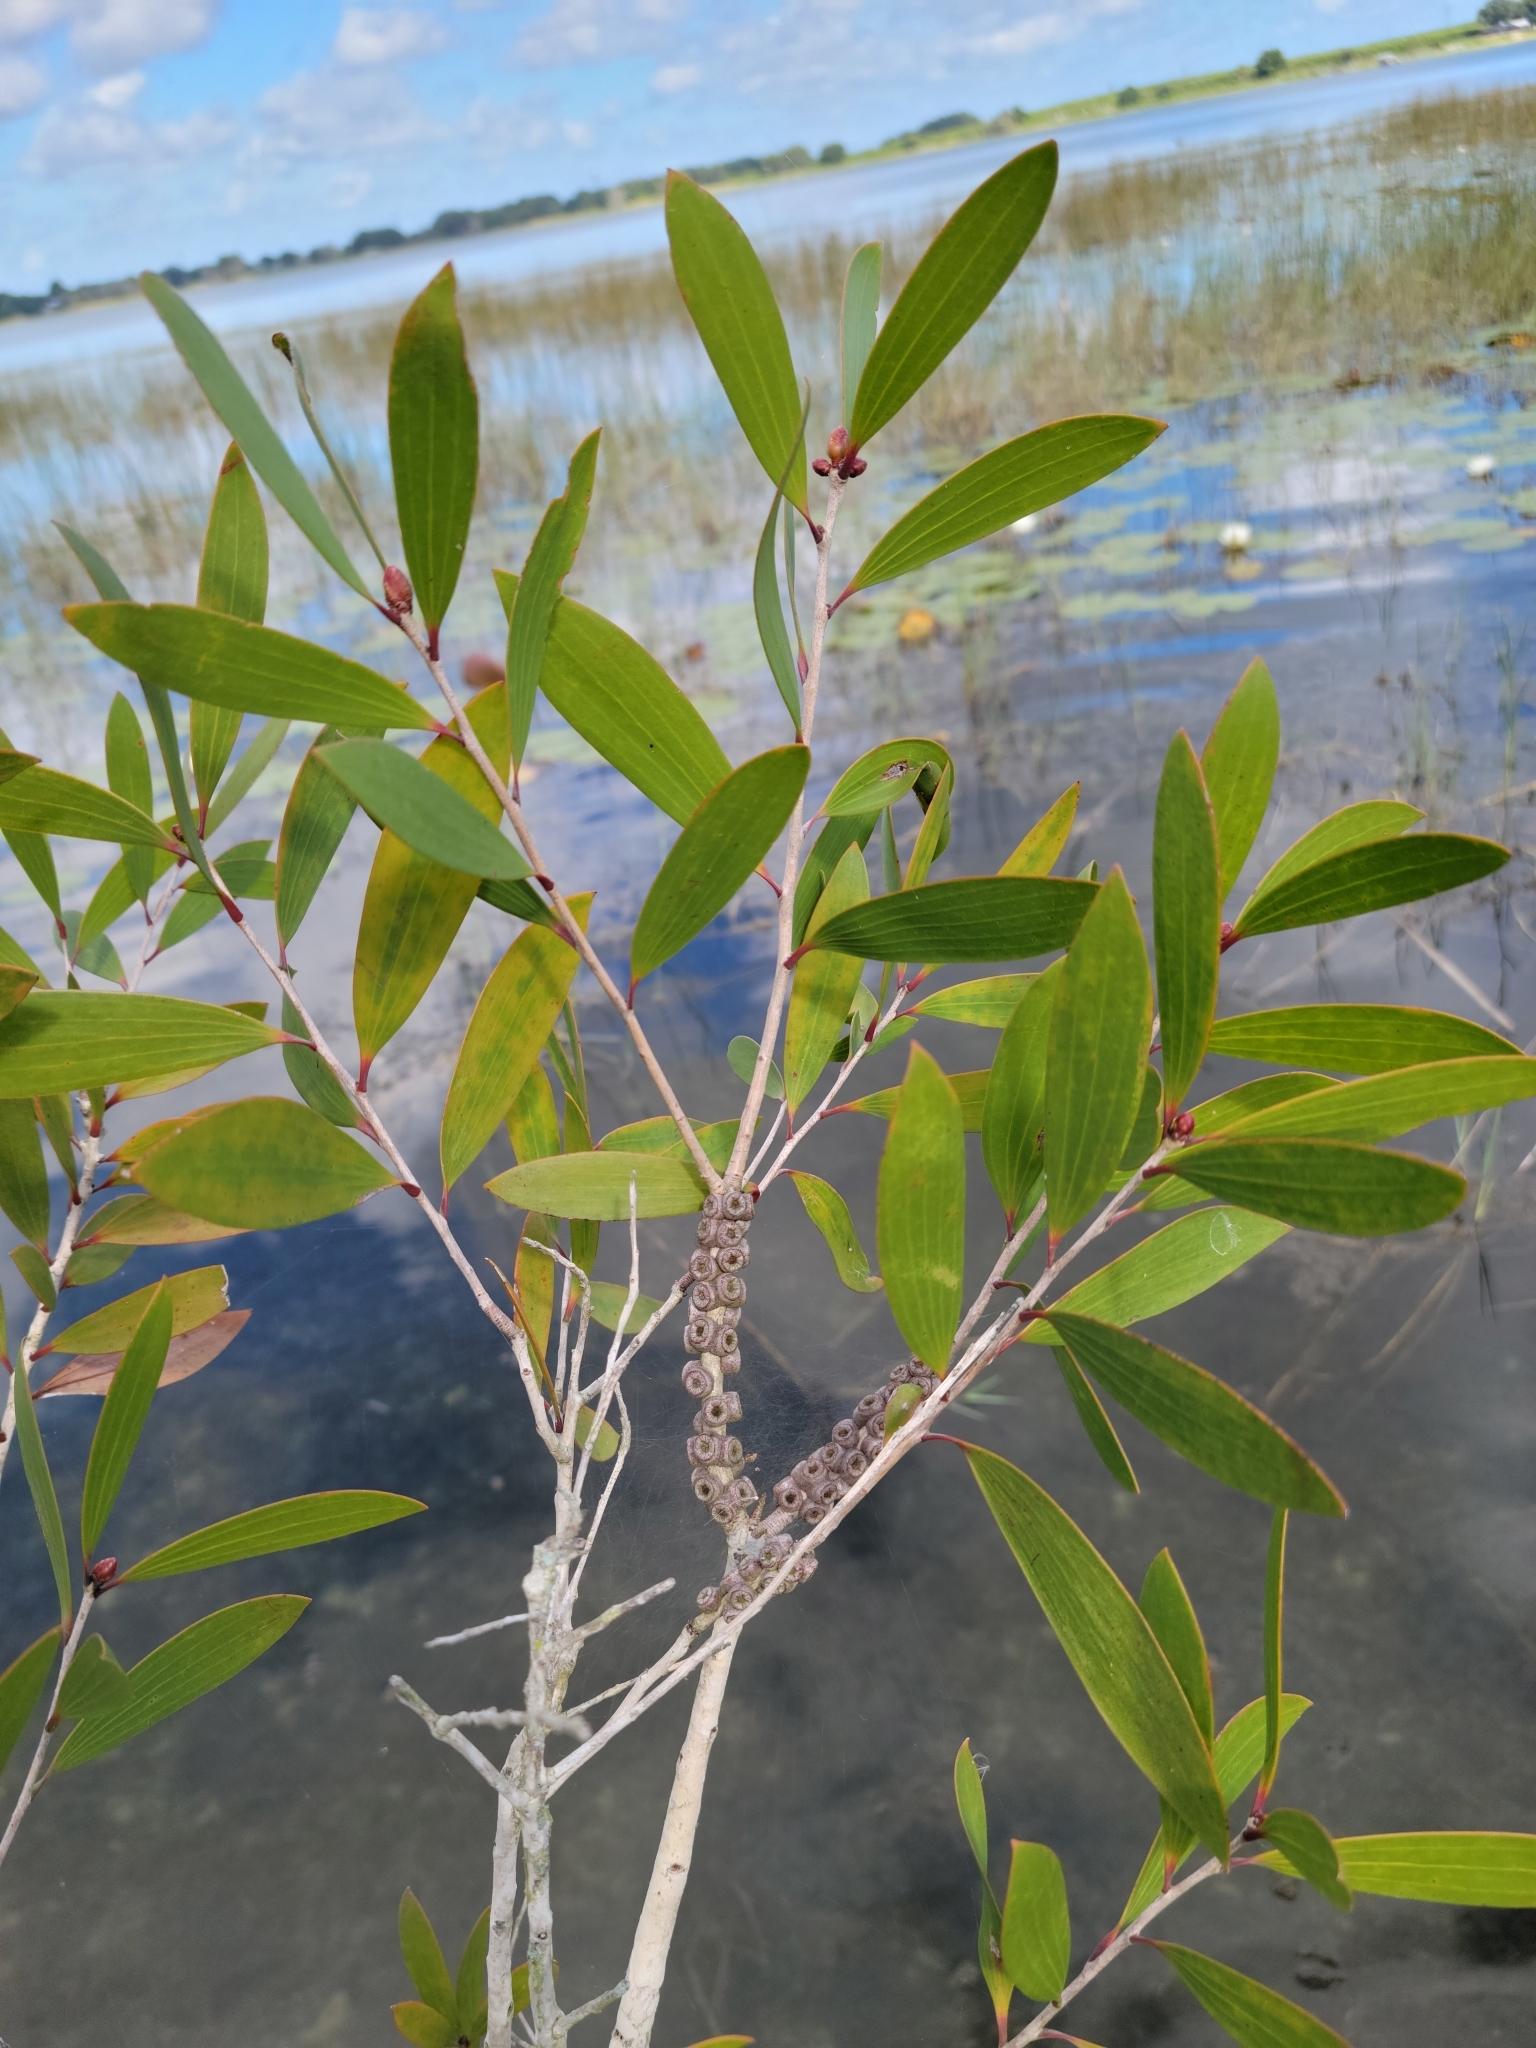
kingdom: Plantae
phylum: Tracheophyta
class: Magnoliopsida
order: Myrtales
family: Myrtaceae
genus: Melaleuca
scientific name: Melaleuca quinquenervia
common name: Punktree
